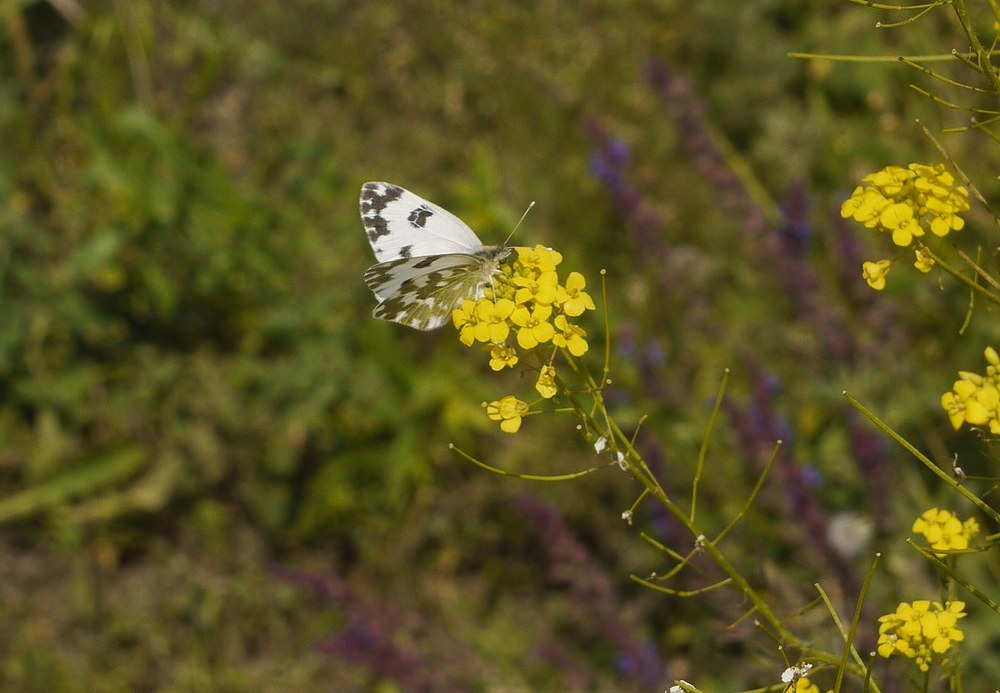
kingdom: Animalia
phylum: Arthropoda
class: Insecta
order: Lepidoptera
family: Pieridae
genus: Pontia
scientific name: Pontia edusa
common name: Eastern bath white
